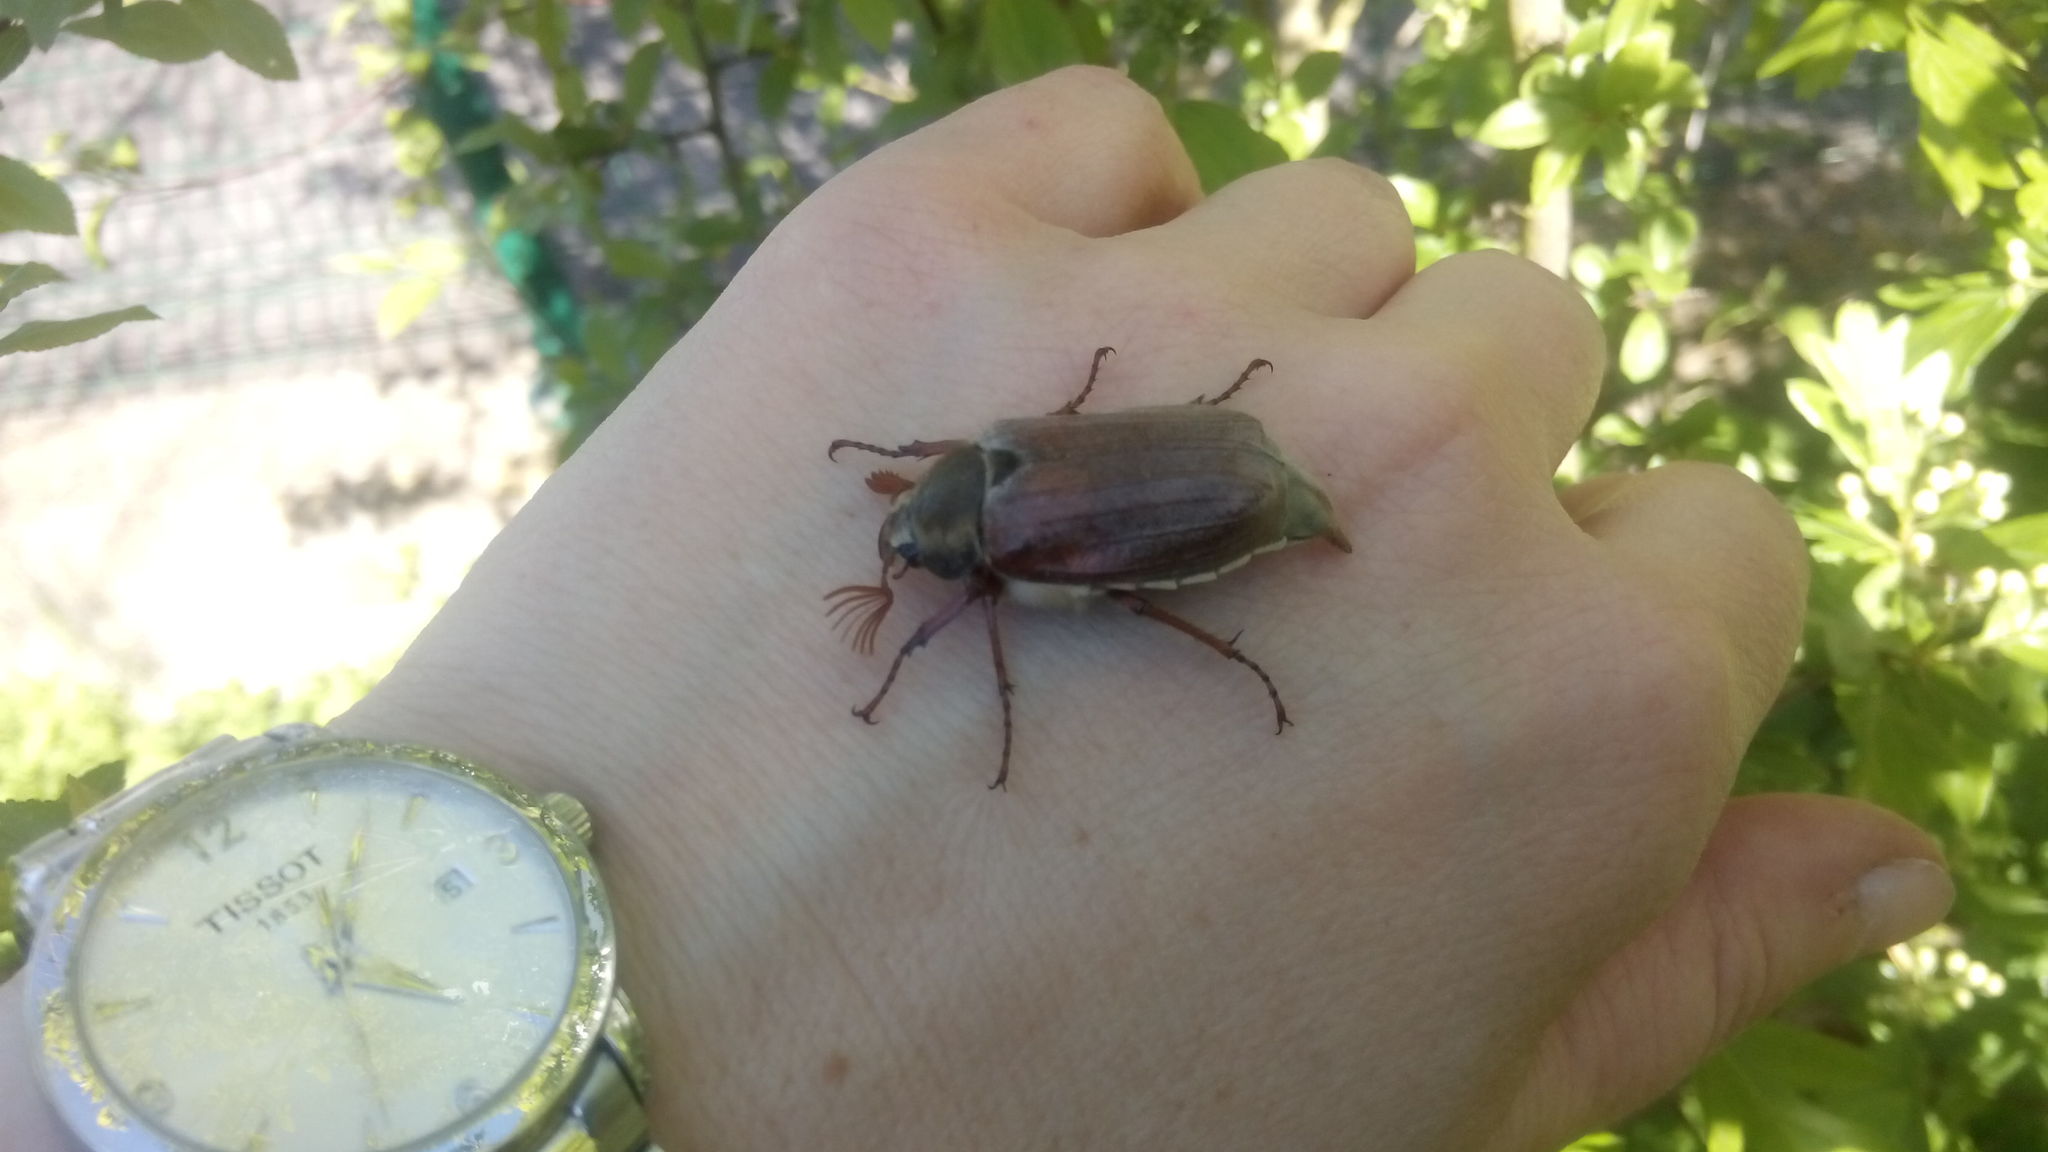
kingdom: Animalia
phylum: Arthropoda
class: Insecta
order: Coleoptera
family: Scarabaeidae
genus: Melolontha
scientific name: Melolontha melolontha
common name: Cockchafer maybeetle
